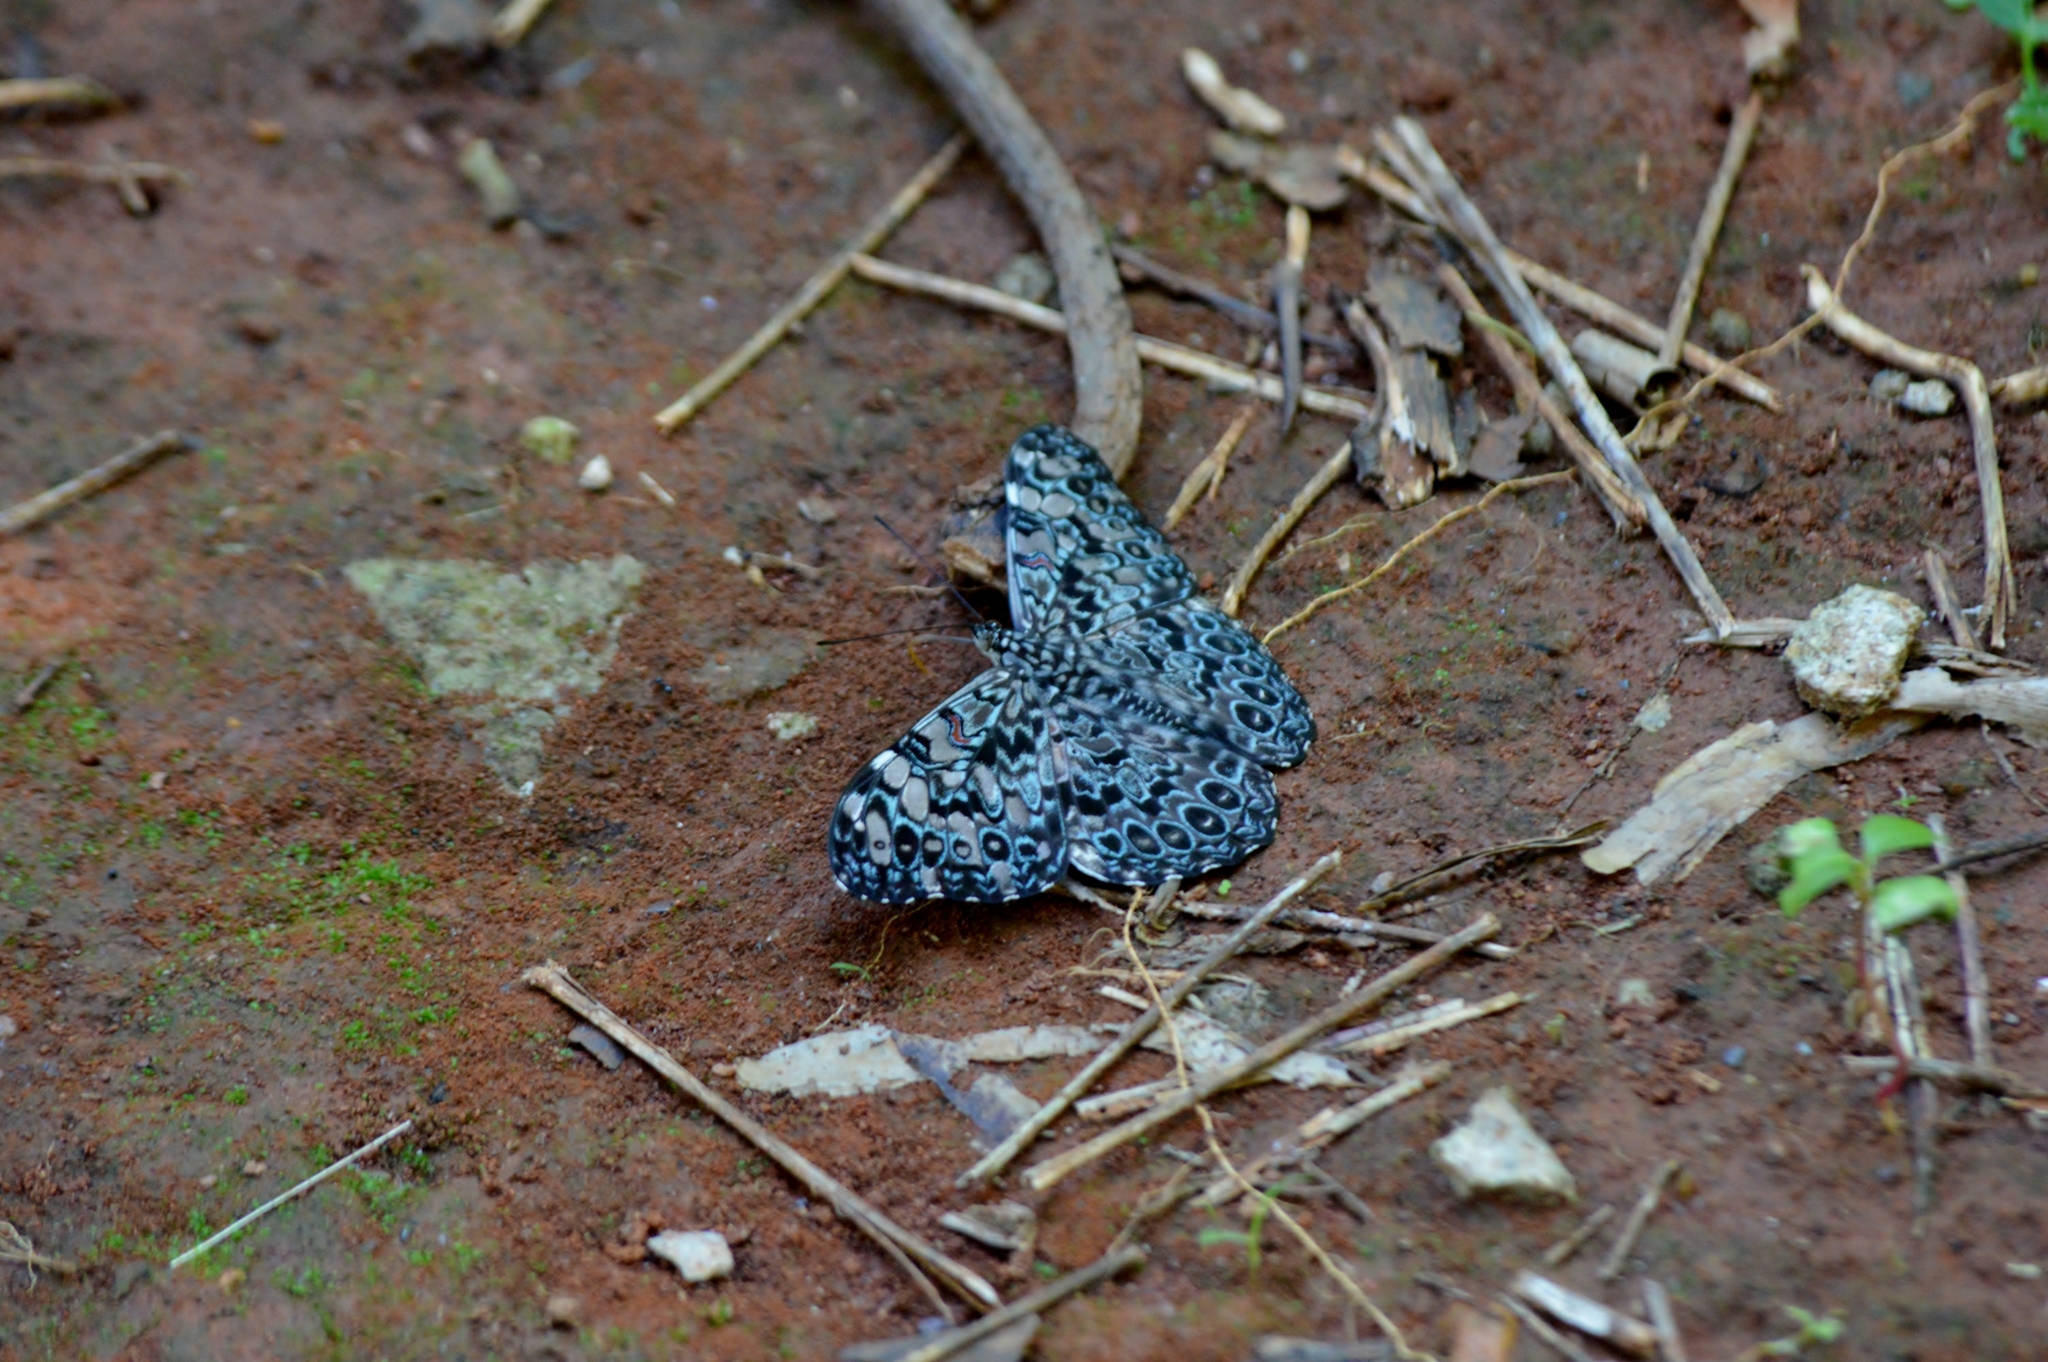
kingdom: Animalia
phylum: Arthropoda
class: Insecta
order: Lepidoptera
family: Nymphalidae
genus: Hamadryas
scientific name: Hamadryas feronia
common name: Variable cracker
